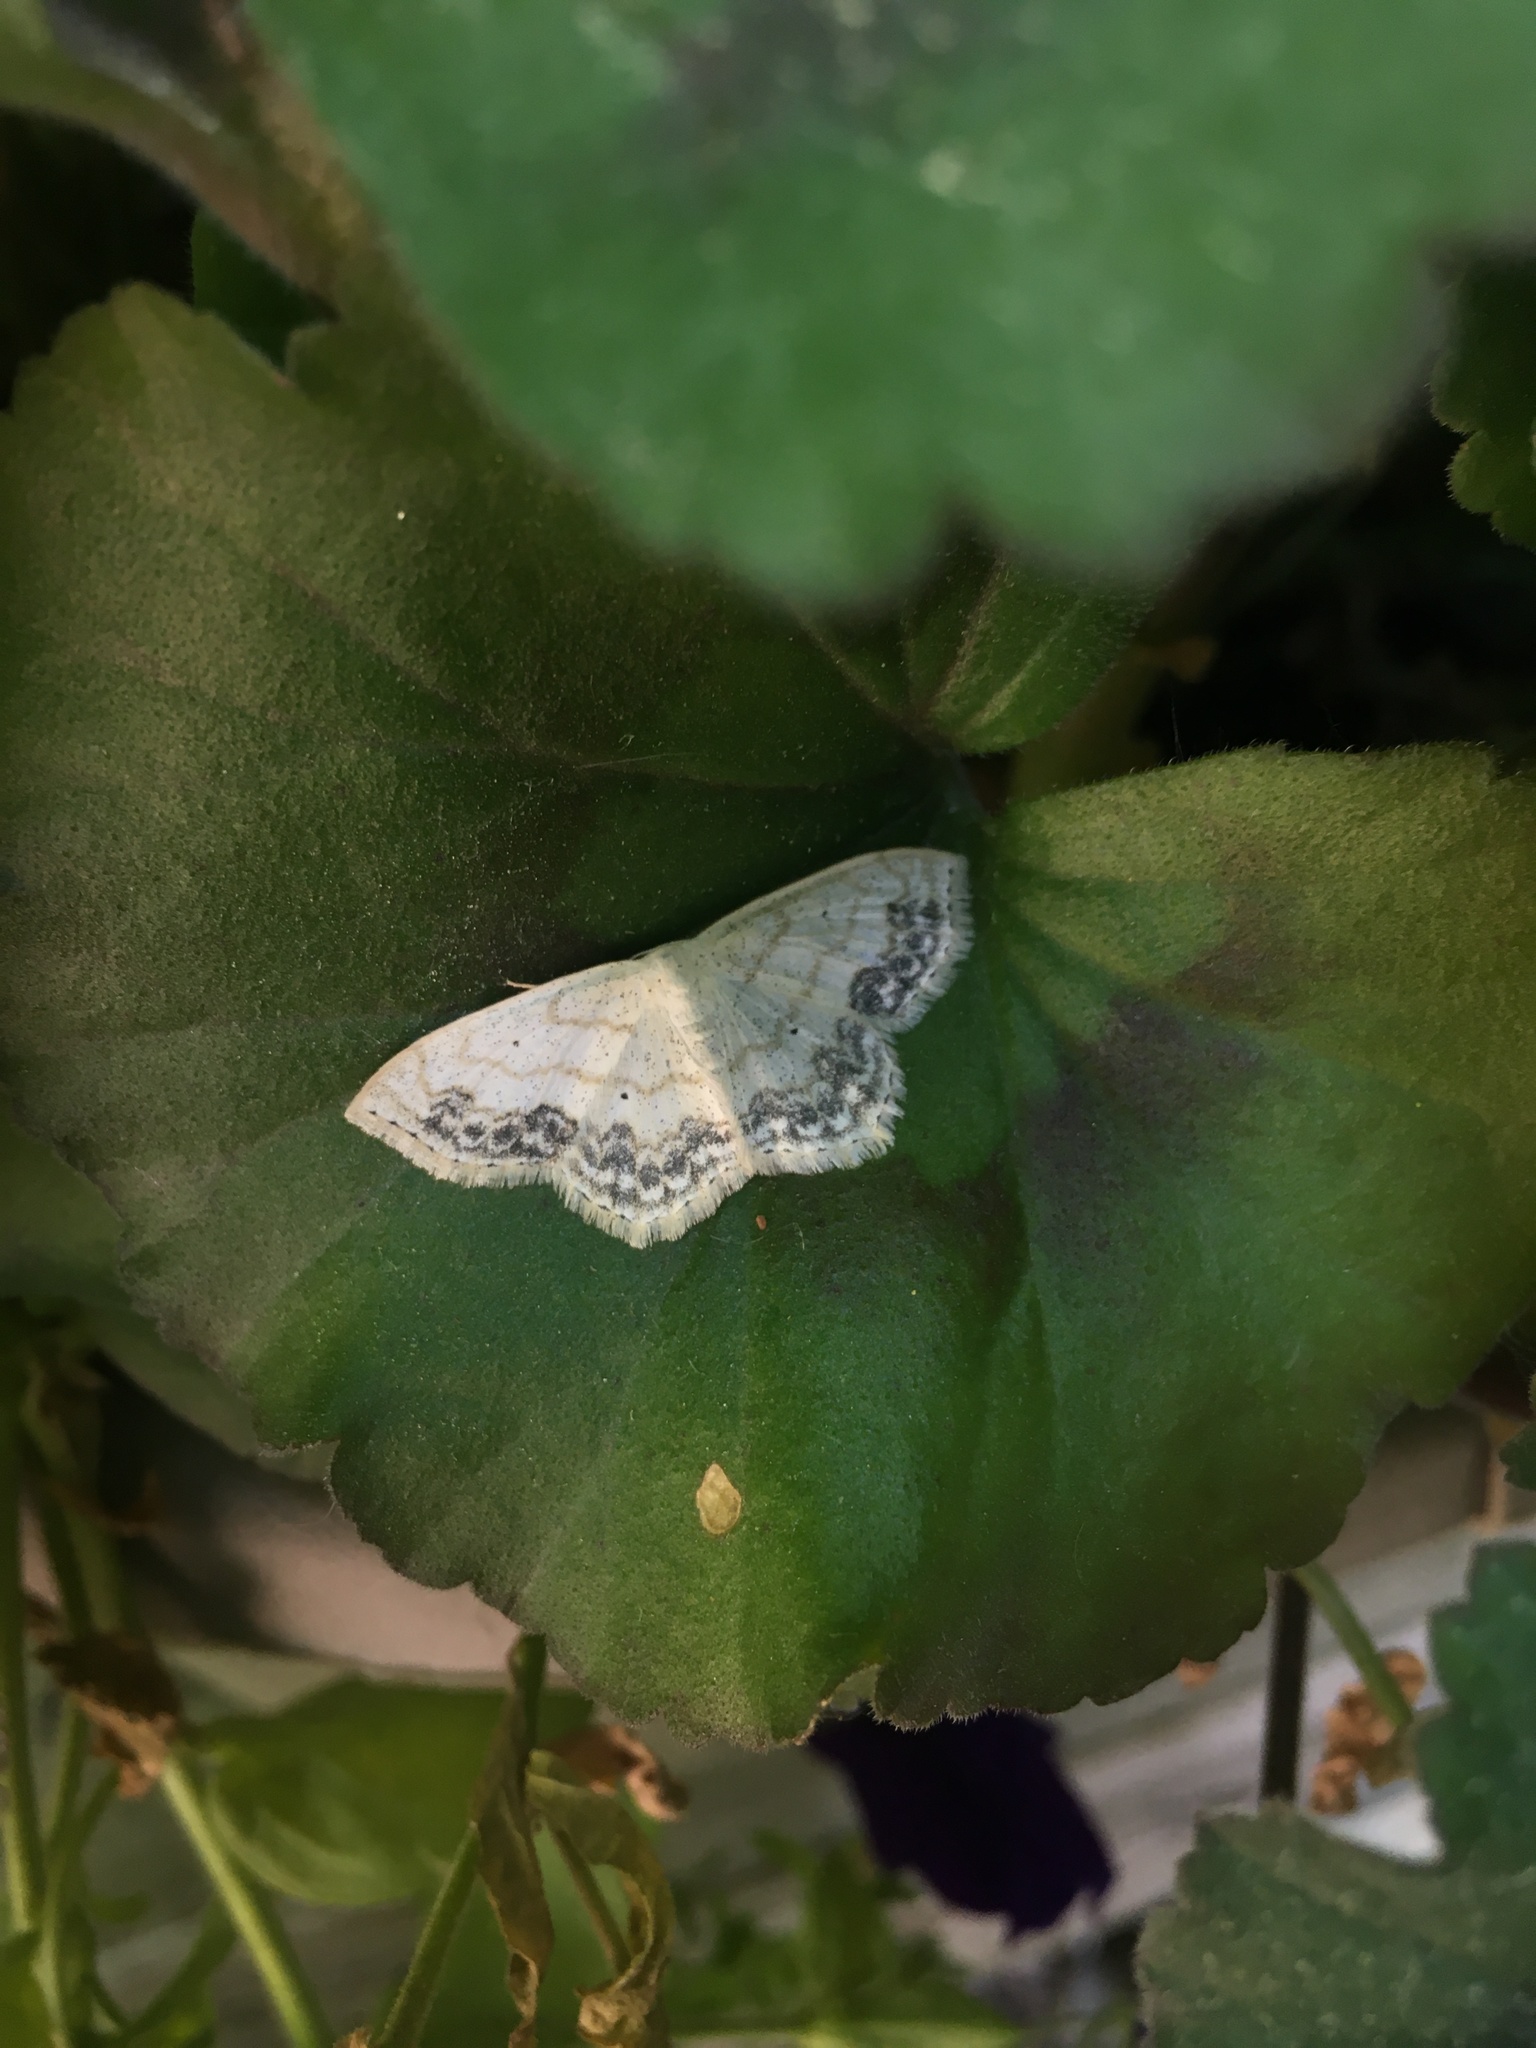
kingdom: Animalia
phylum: Arthropoda
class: Insecta
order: Lepidoptera
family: Geometridae
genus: Scopula
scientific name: Scopula limboundata
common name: Large lace border
